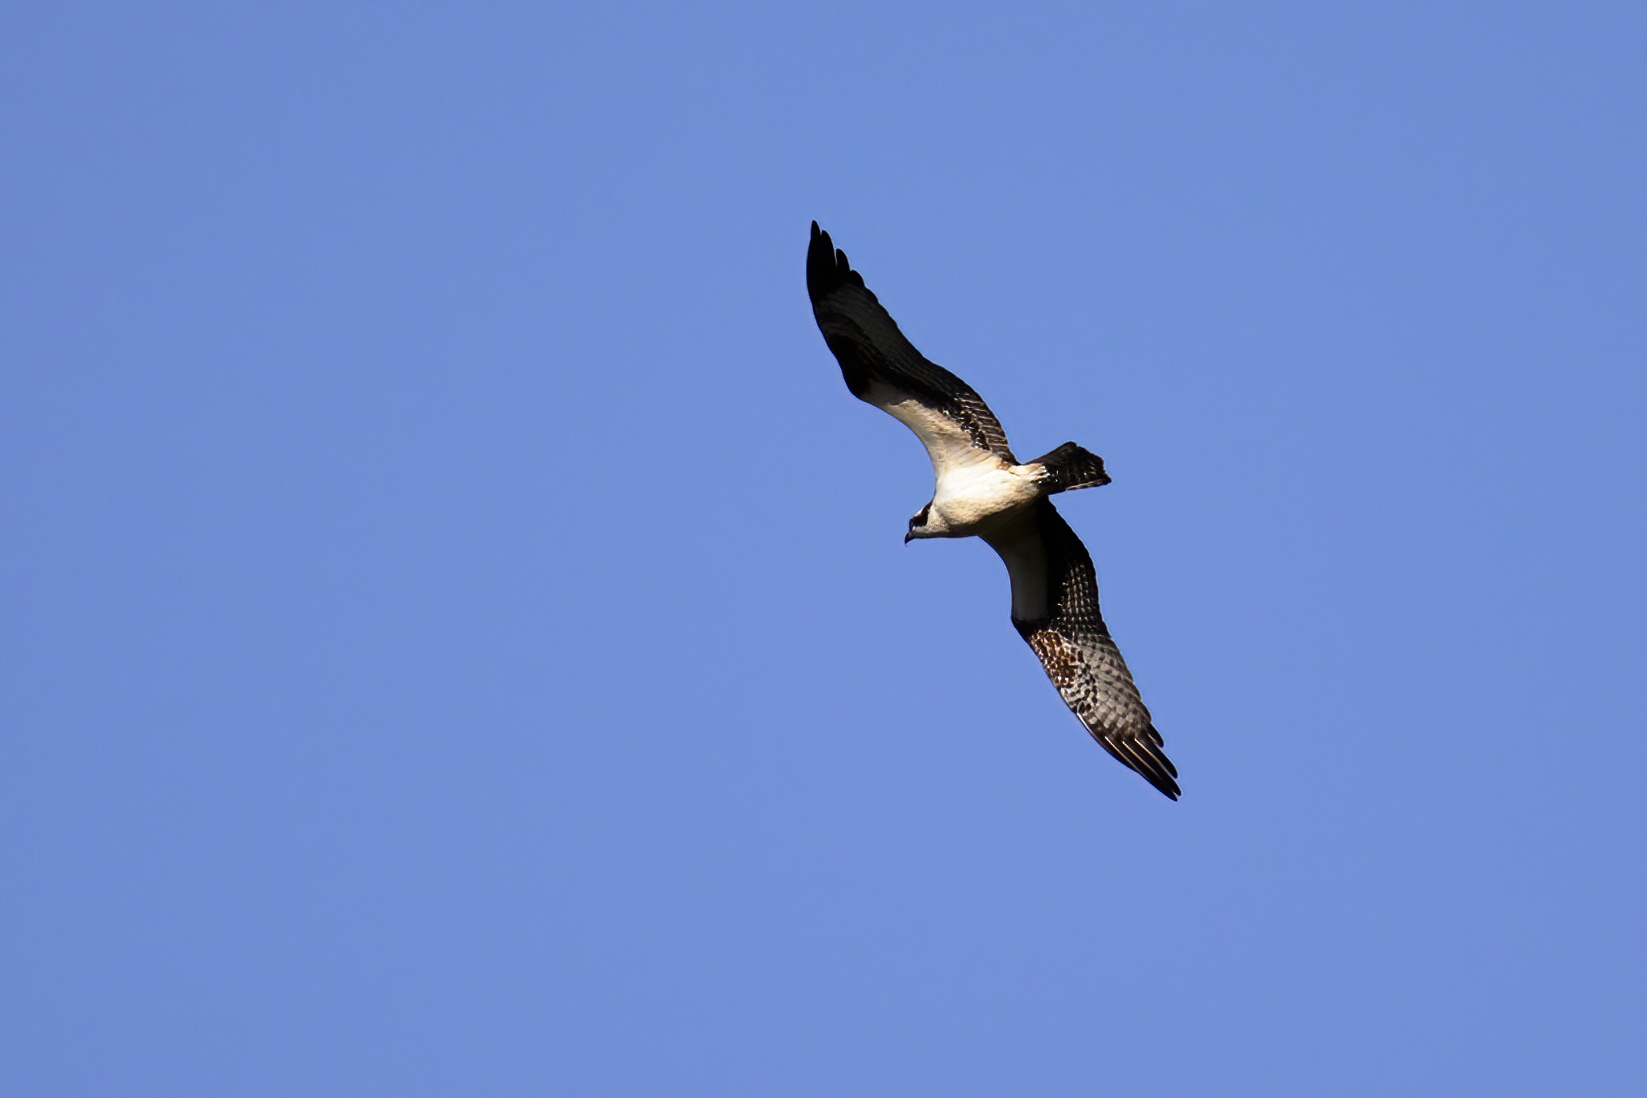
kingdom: Animalia
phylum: Chordata
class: Aves
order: Accipitriformes
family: Pandionidae
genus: Pandion
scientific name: Pandion haliaetus
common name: Osprey
